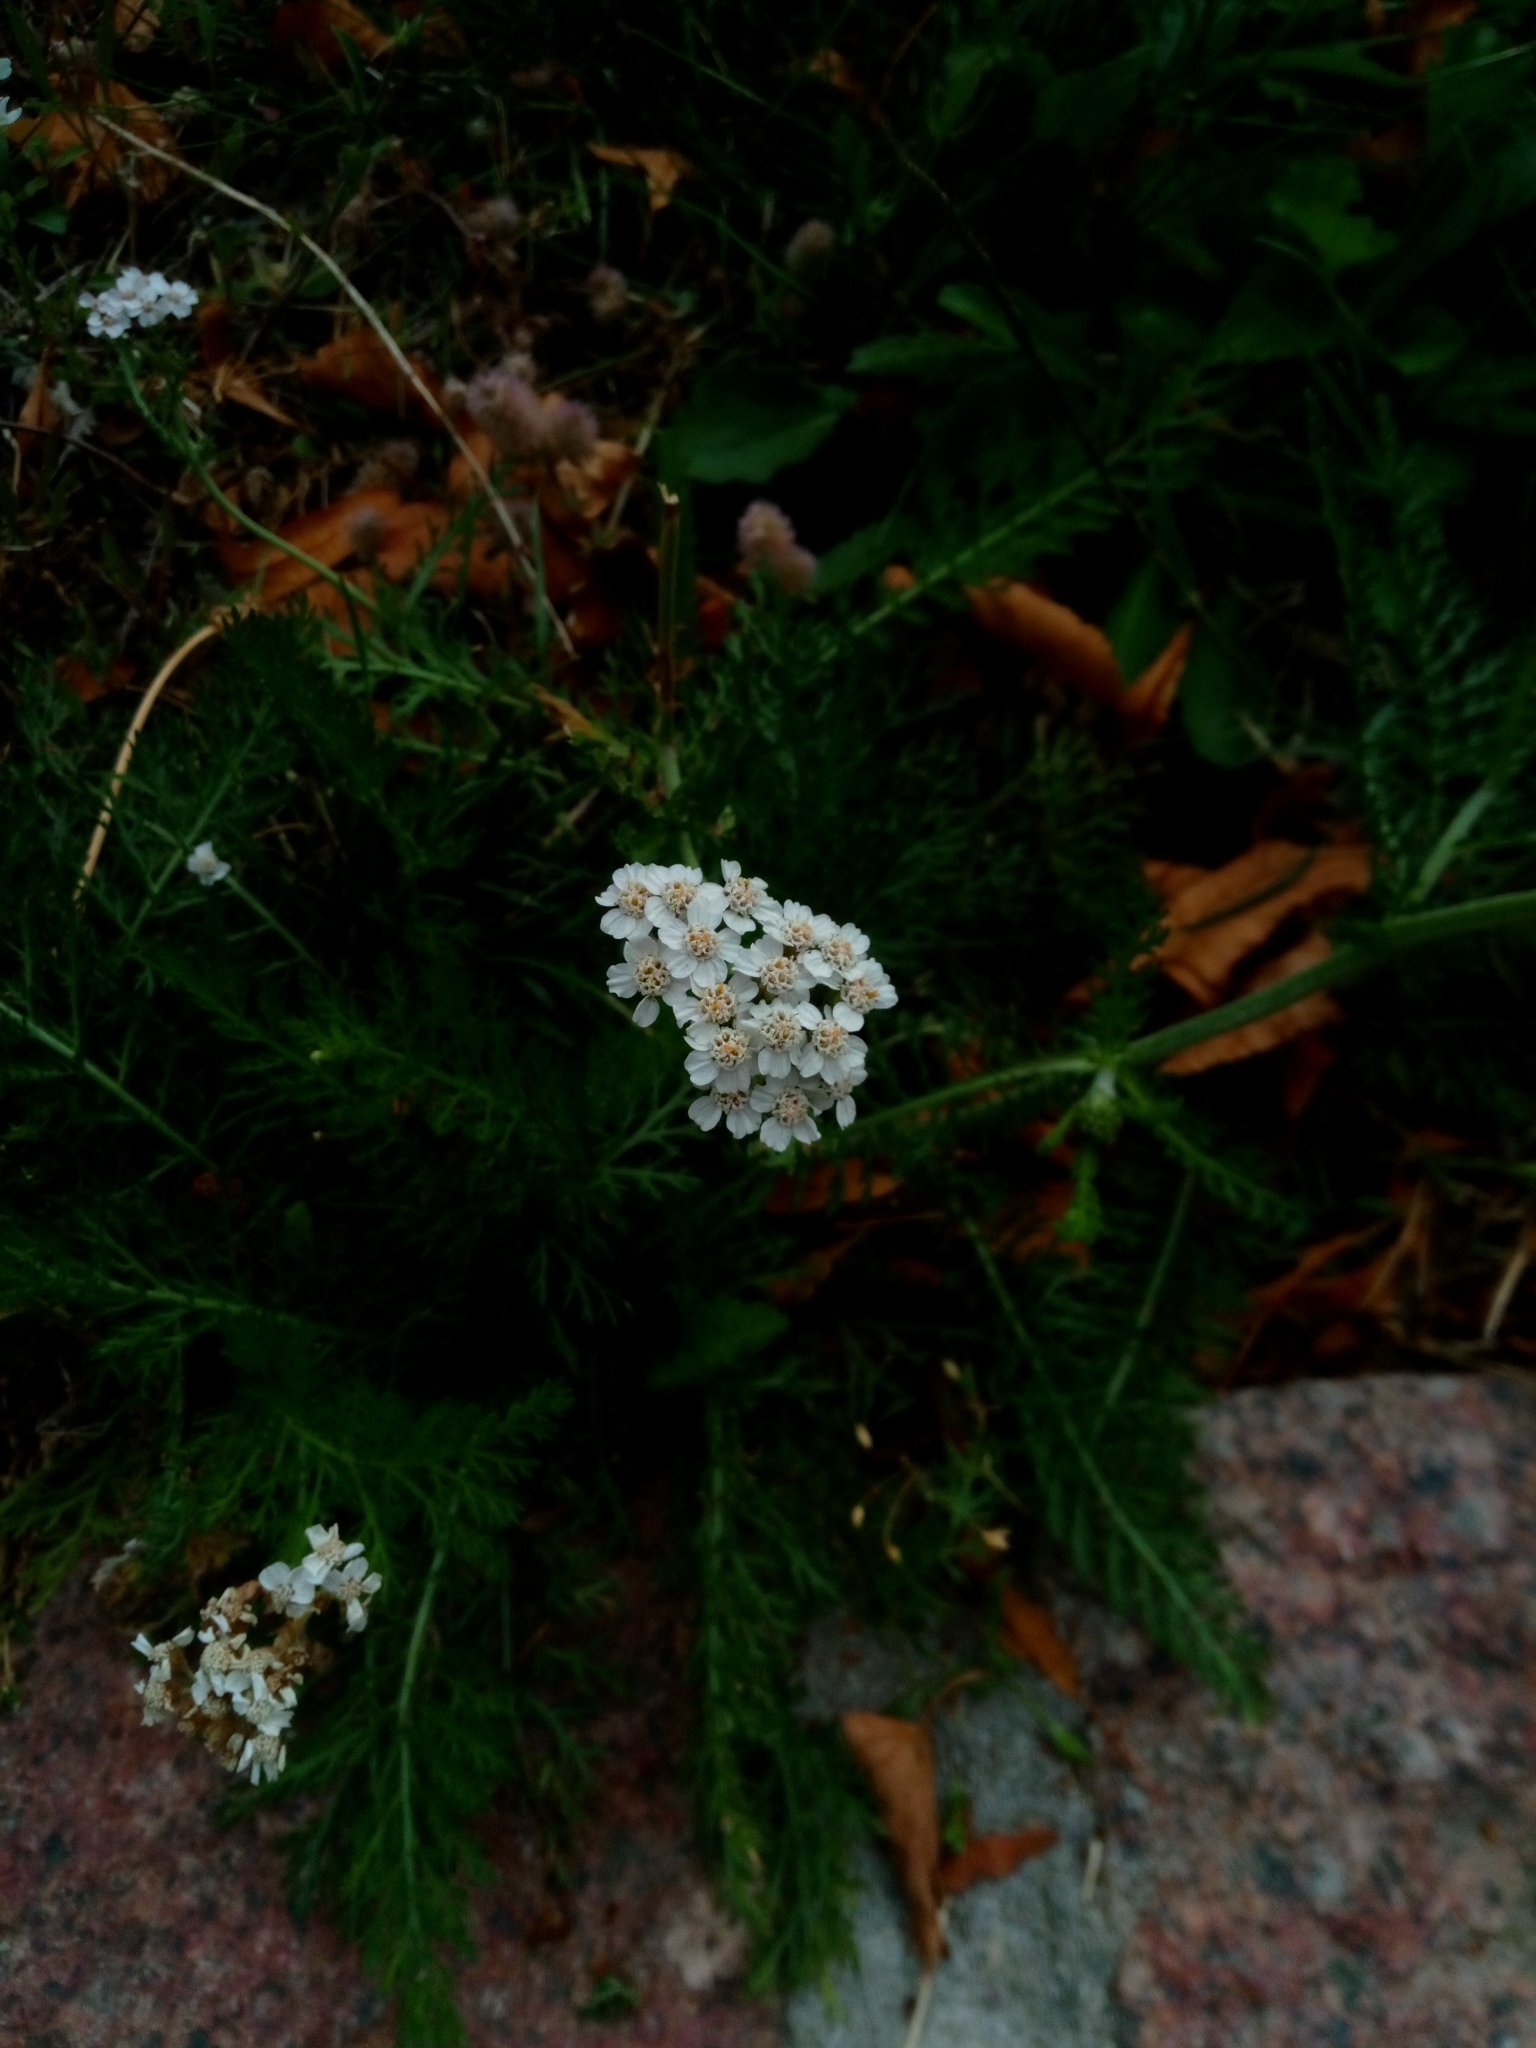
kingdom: Plantae
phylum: Tracheophyta
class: Magnoliopsida
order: Asterales
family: Asteraceae
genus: Achillea
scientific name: Achillea millefolium
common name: Yarrow
